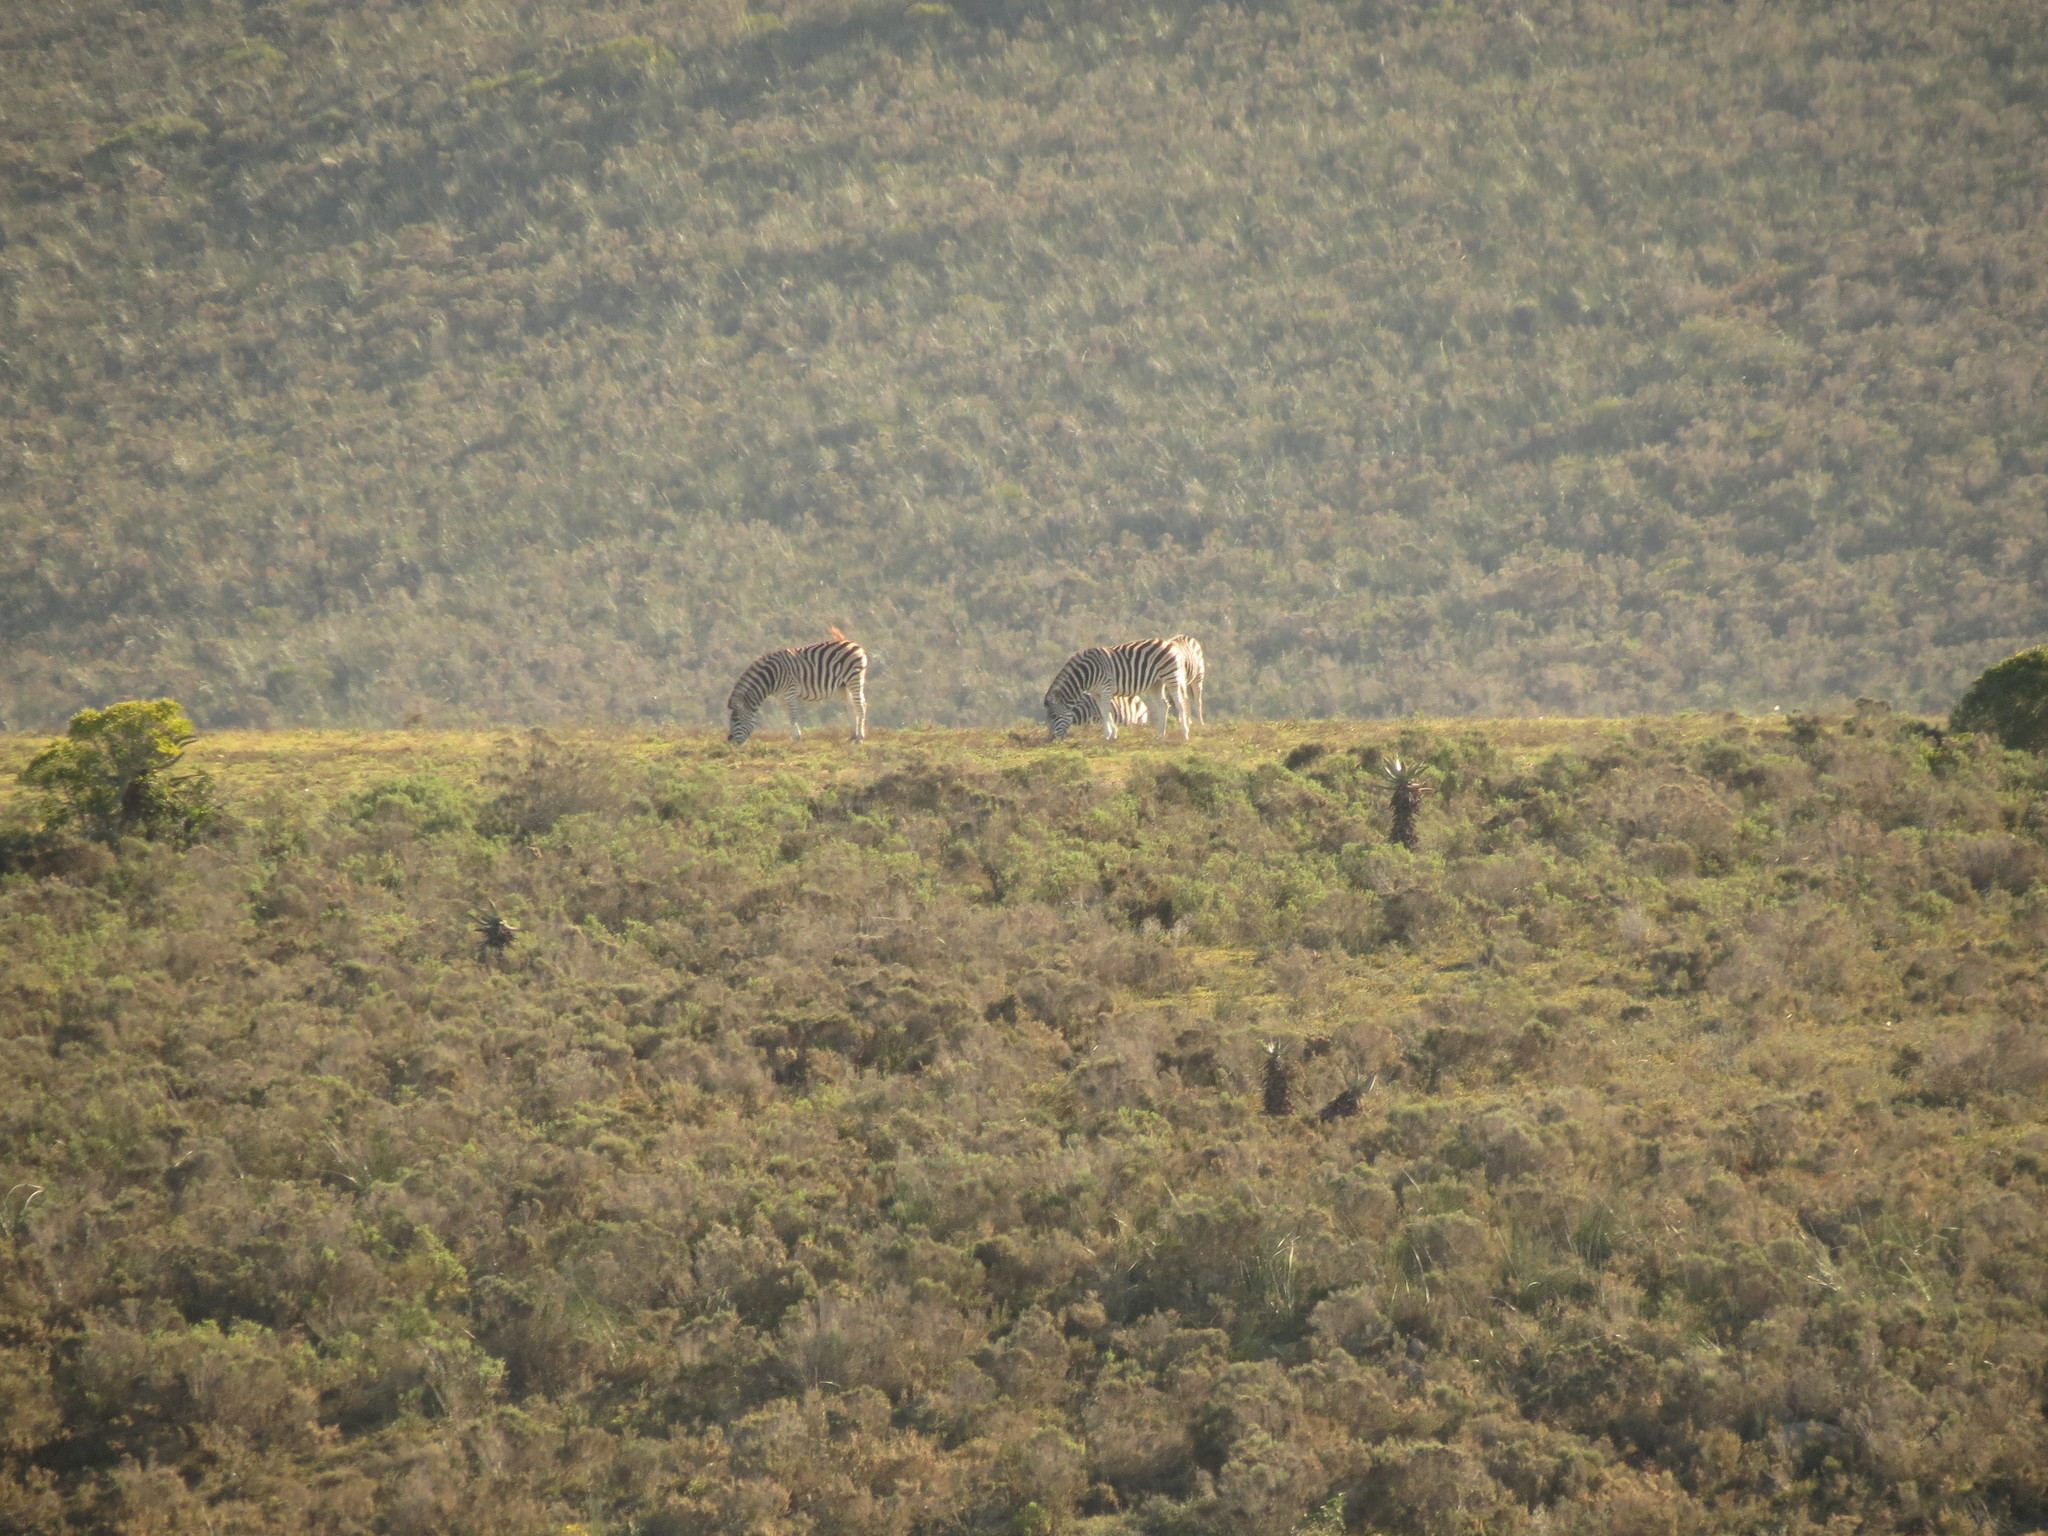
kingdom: Animalia
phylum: Chordata
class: Mammalia
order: Perissodactyla
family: Equidae
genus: Equus
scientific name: Equus quagga
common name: Plains zebra
